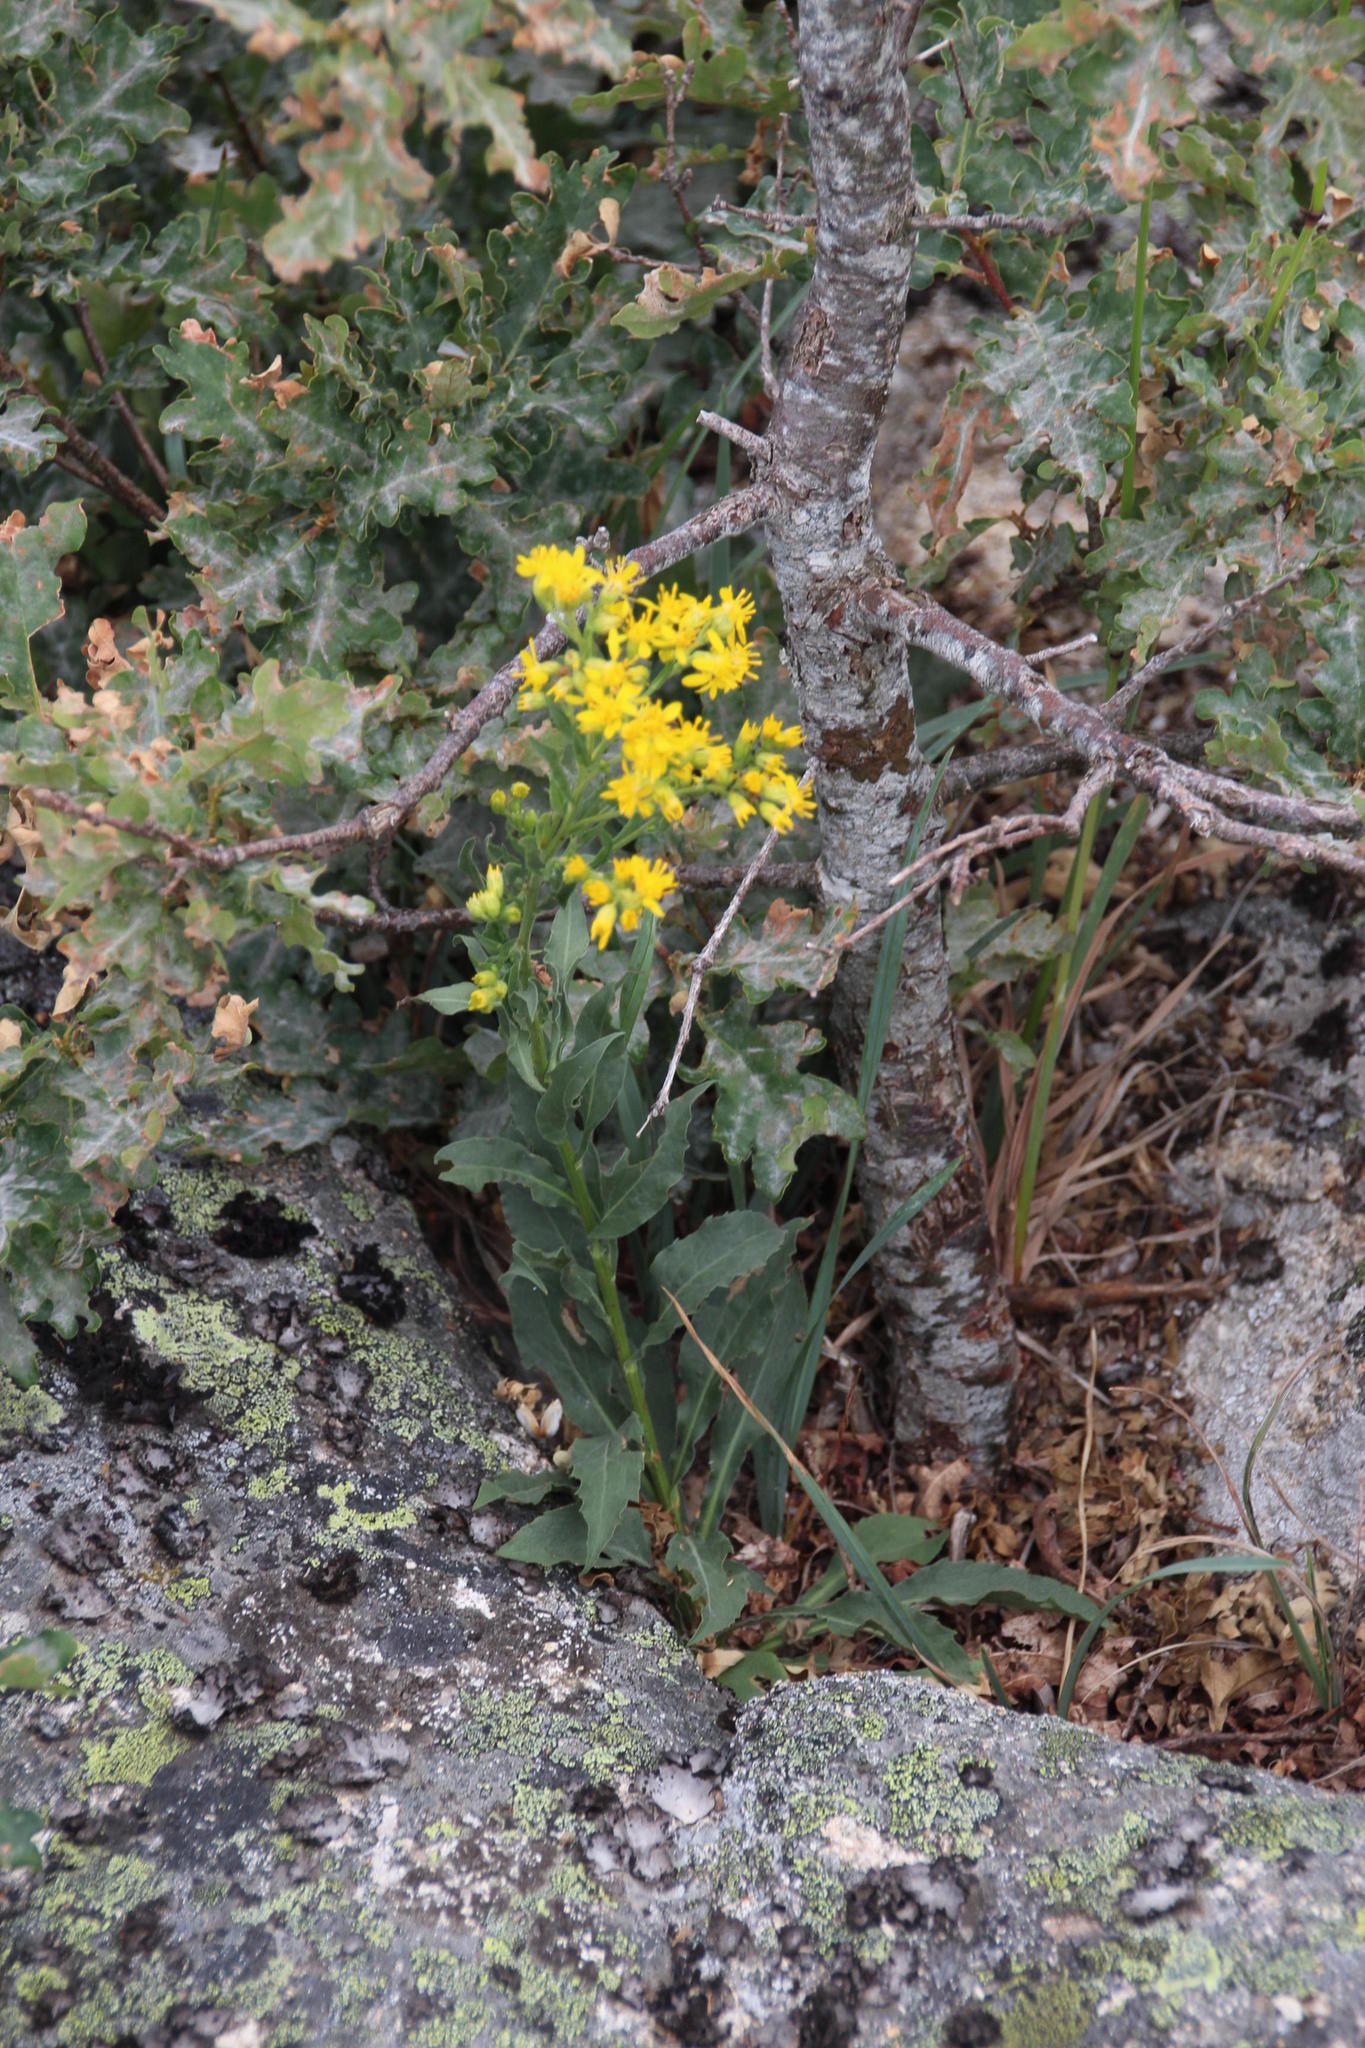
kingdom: Plantae
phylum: Tracheophyta
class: Magnoliopsida
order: Asterales
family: Asteraceae
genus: Solidago
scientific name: Solidago virgaurea
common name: Goldenrod
